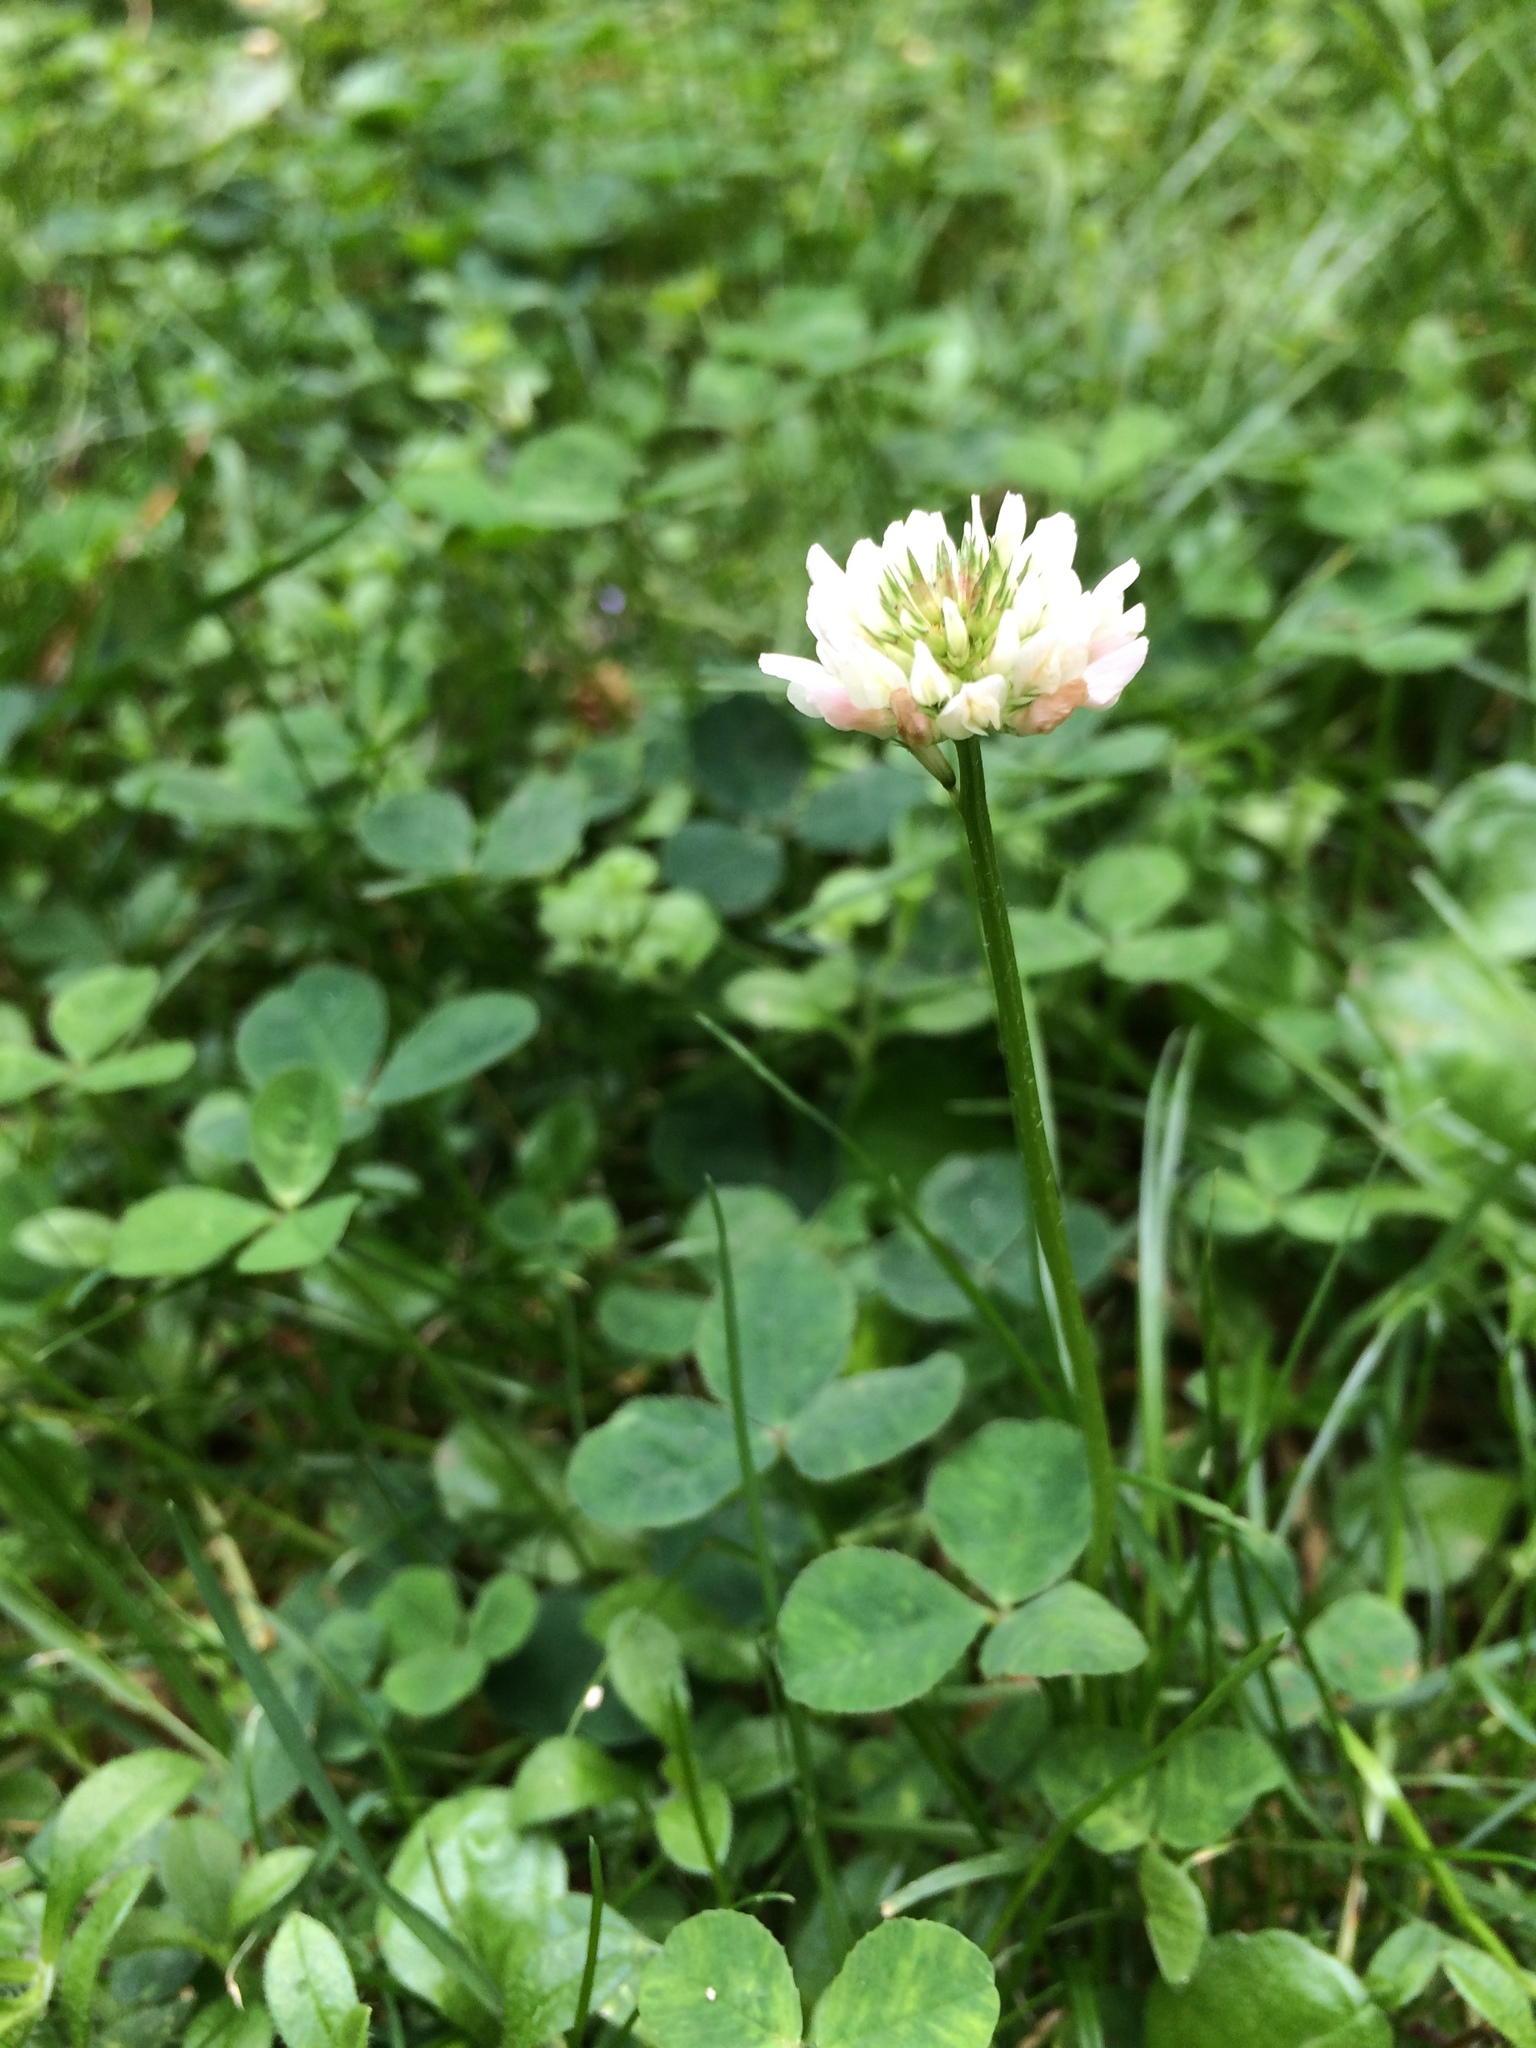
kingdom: Plantae
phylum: Tracheophyta
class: Magnoliopsida
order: Fabales
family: Fabaceae
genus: Trifolium
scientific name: Trifolium repens
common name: White clover
